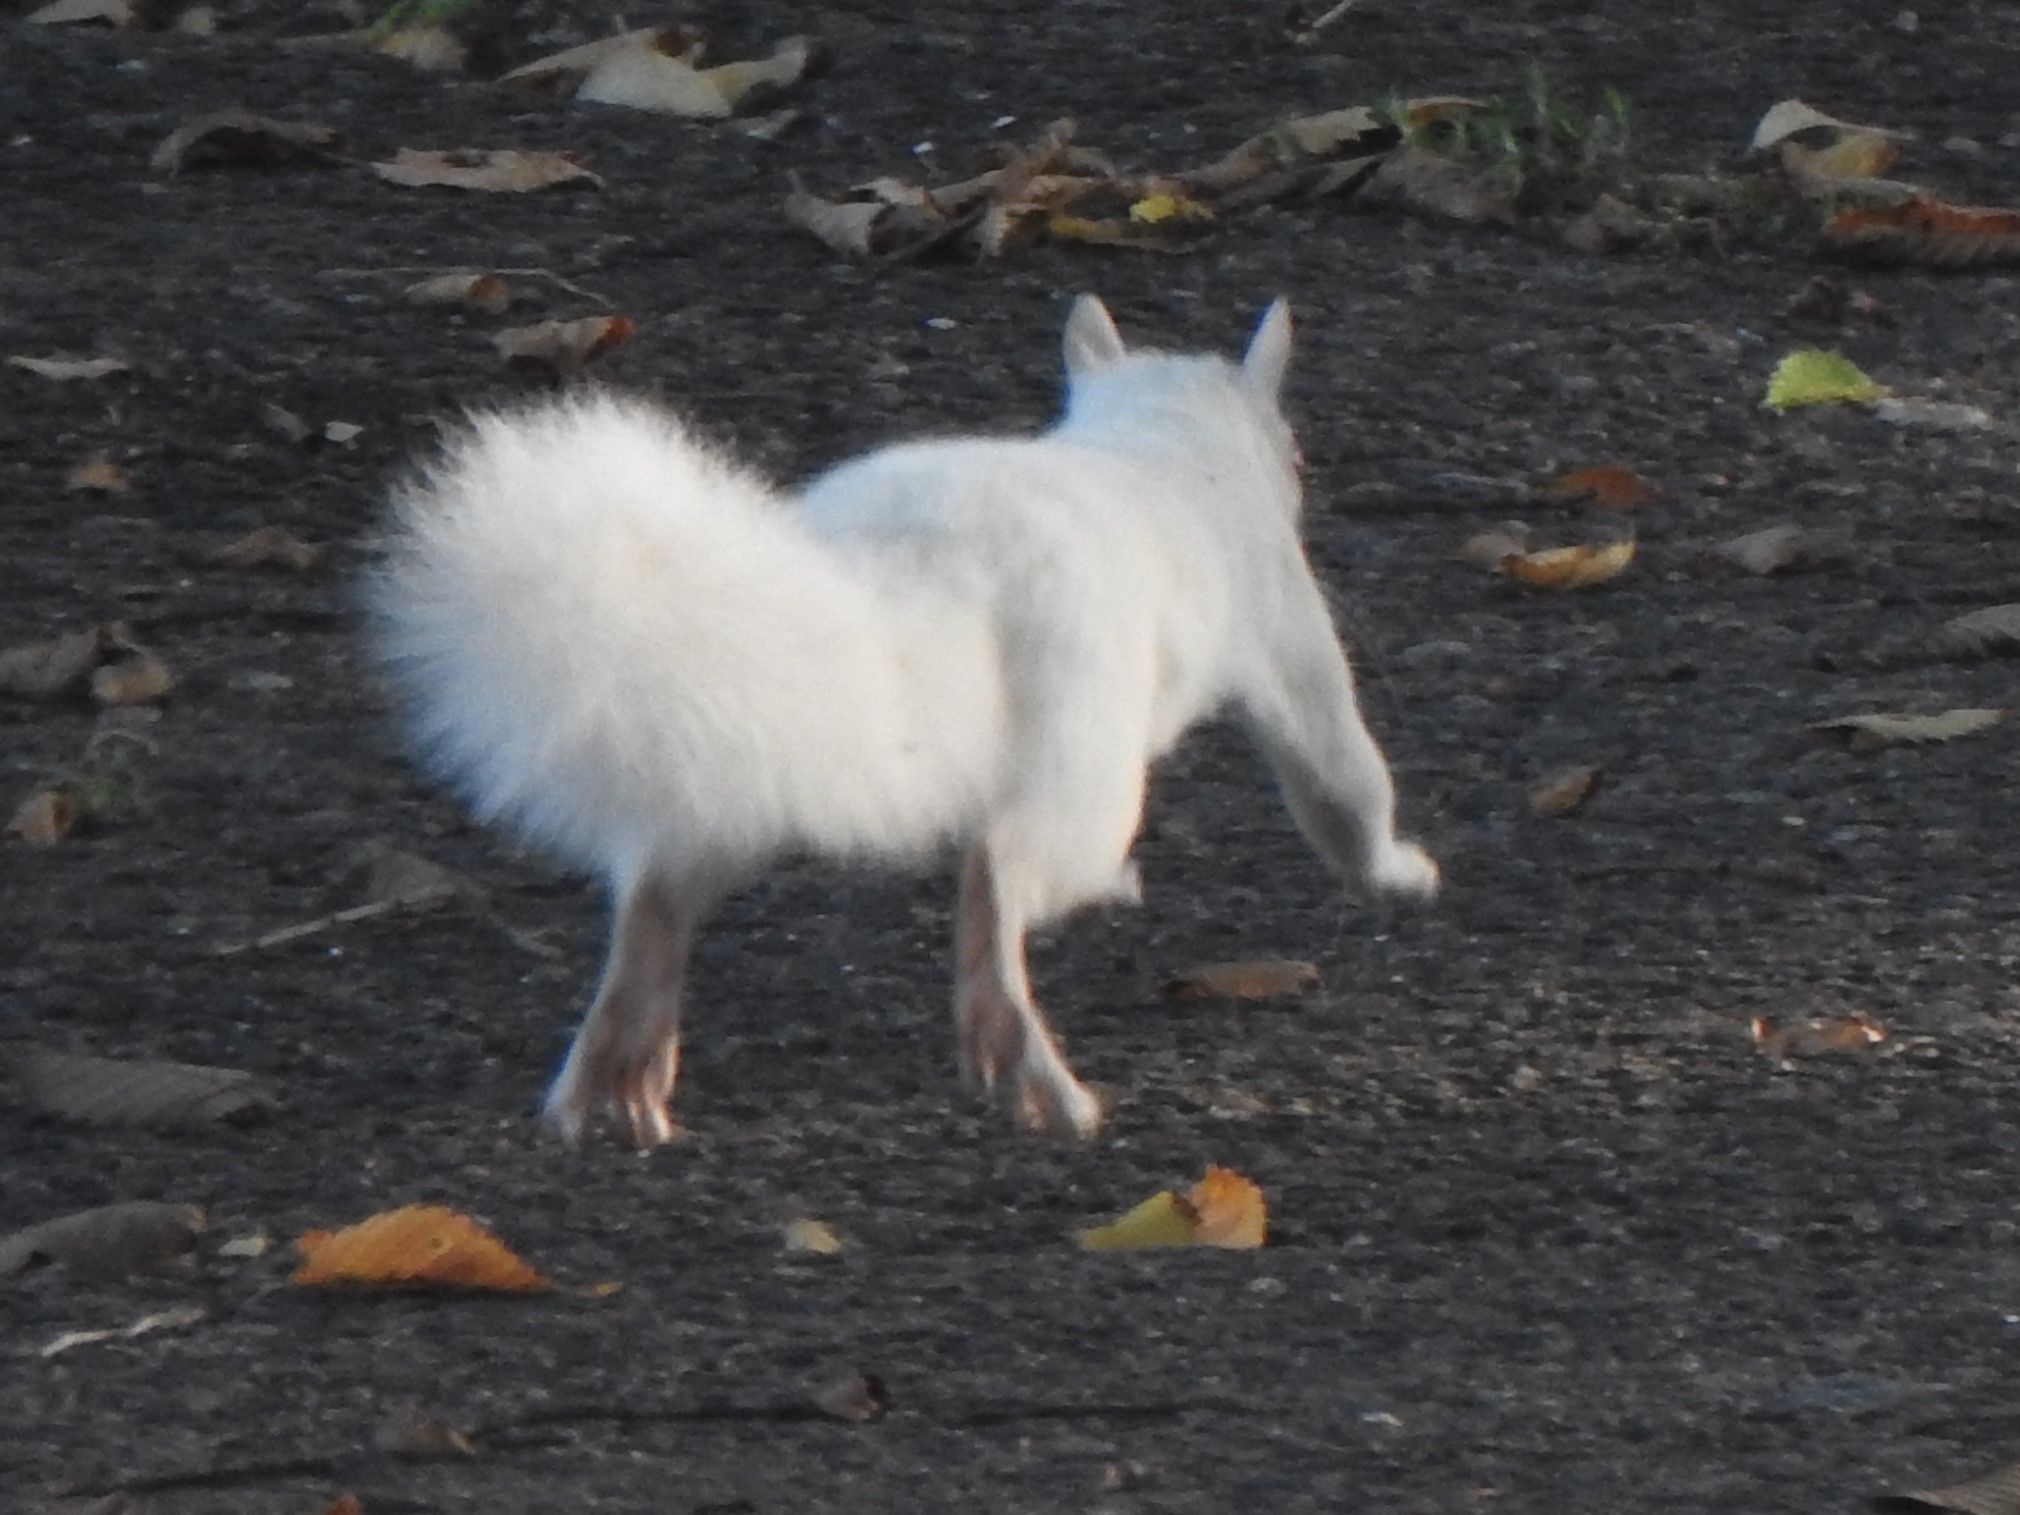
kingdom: Animalia
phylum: Chordata
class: Mammalia
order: Rodentia
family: Sciuridae
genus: Sciurus
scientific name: Sciurus carolinensis
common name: Eastern gray squirrel
